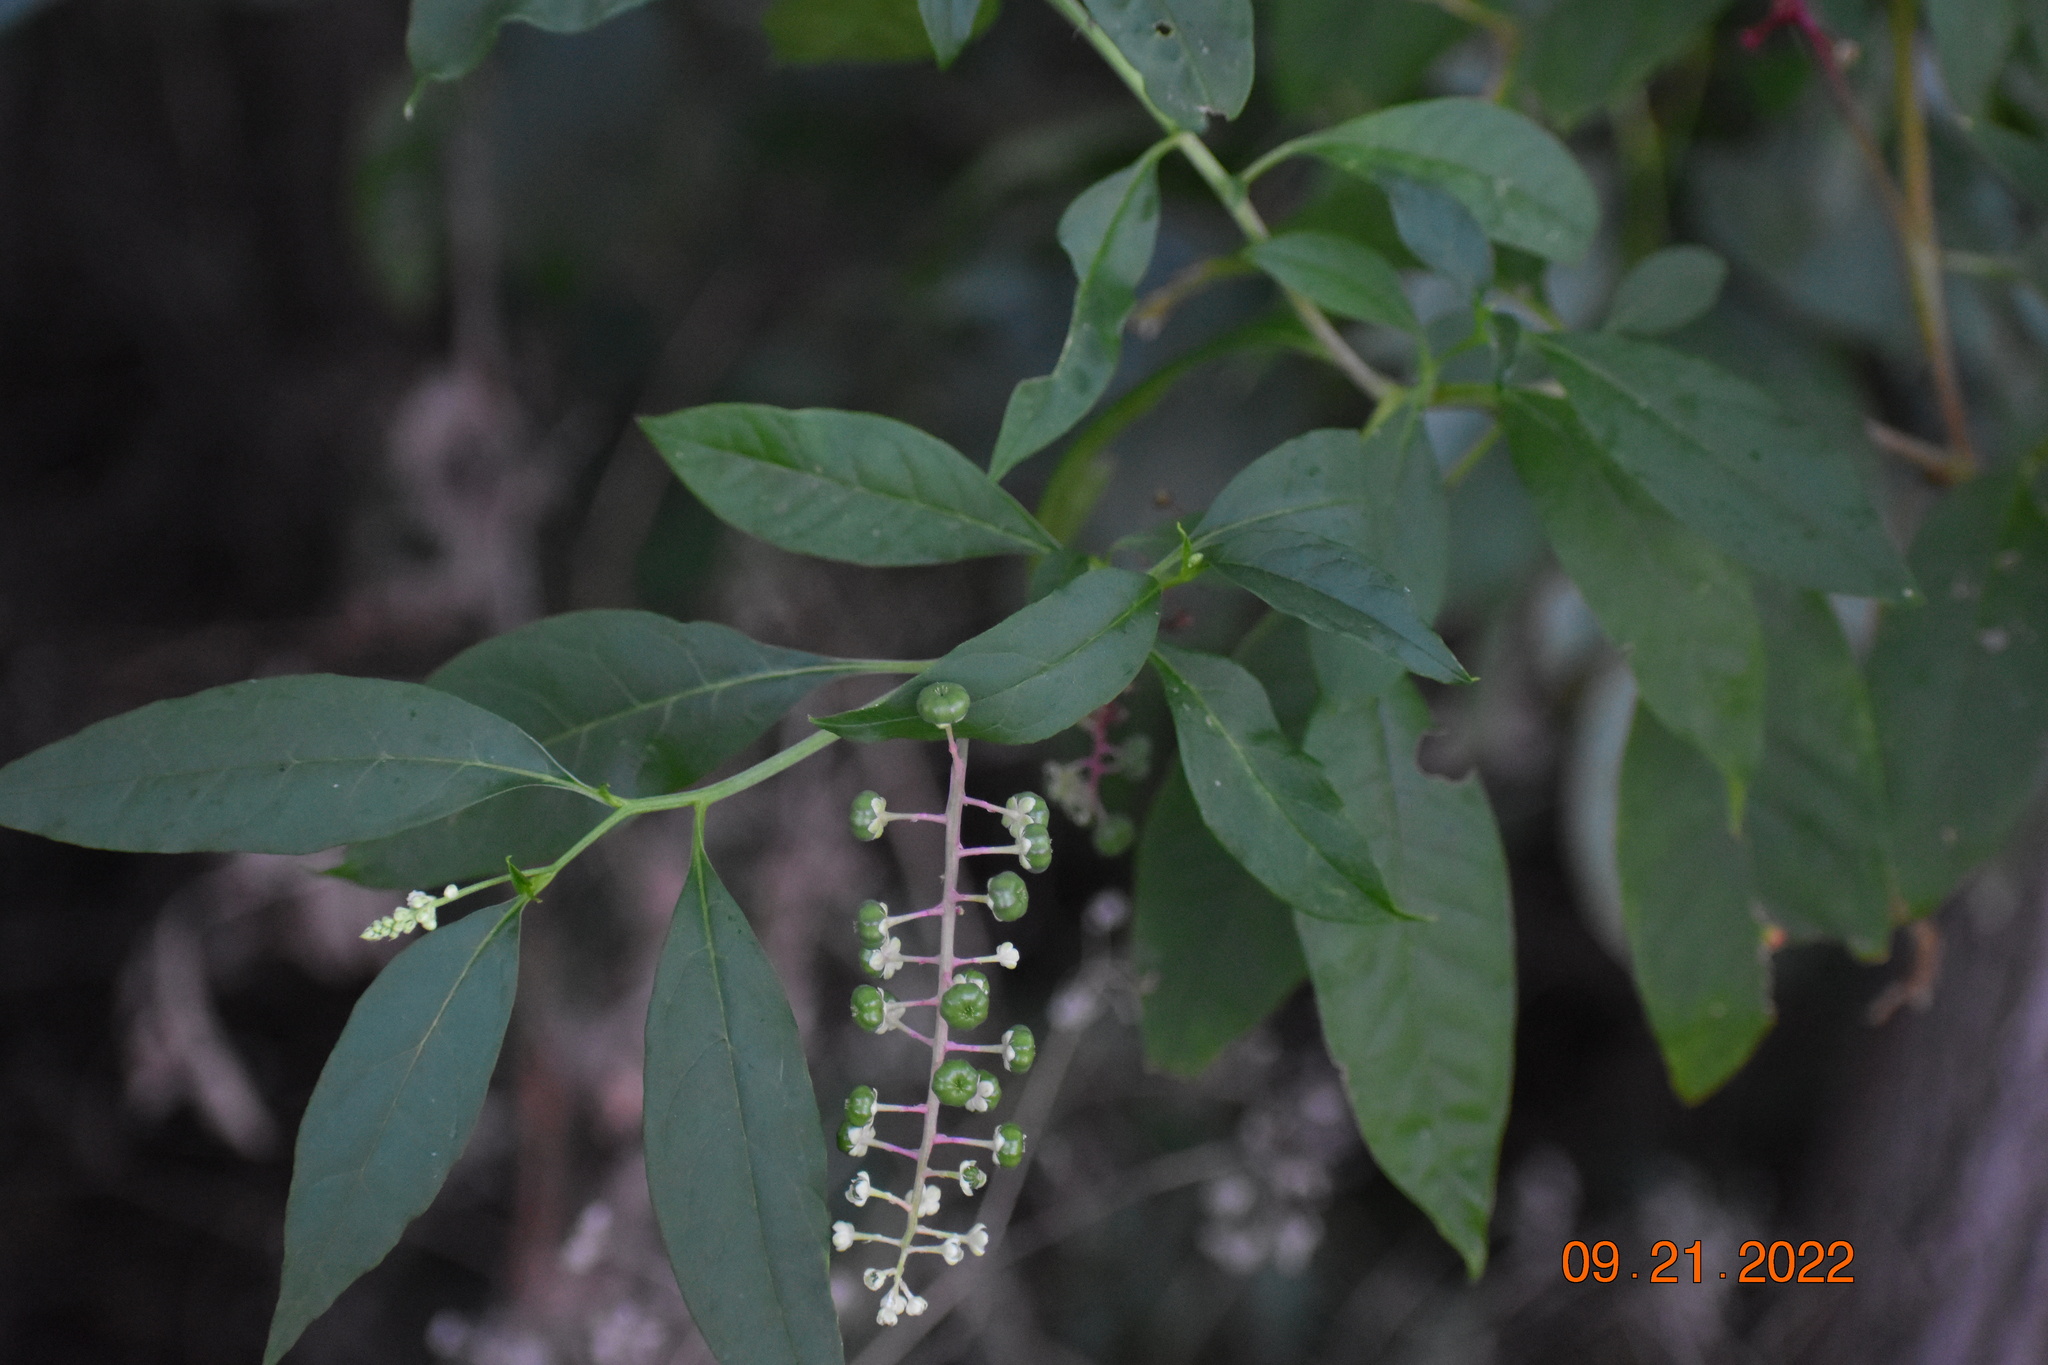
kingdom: Plantae
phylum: Tracheophyta
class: Magnoliopsida
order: Caryophyllales
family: Phytolaccaceae
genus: Phytolacca
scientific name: Phytolacca americana
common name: American pokeweed
